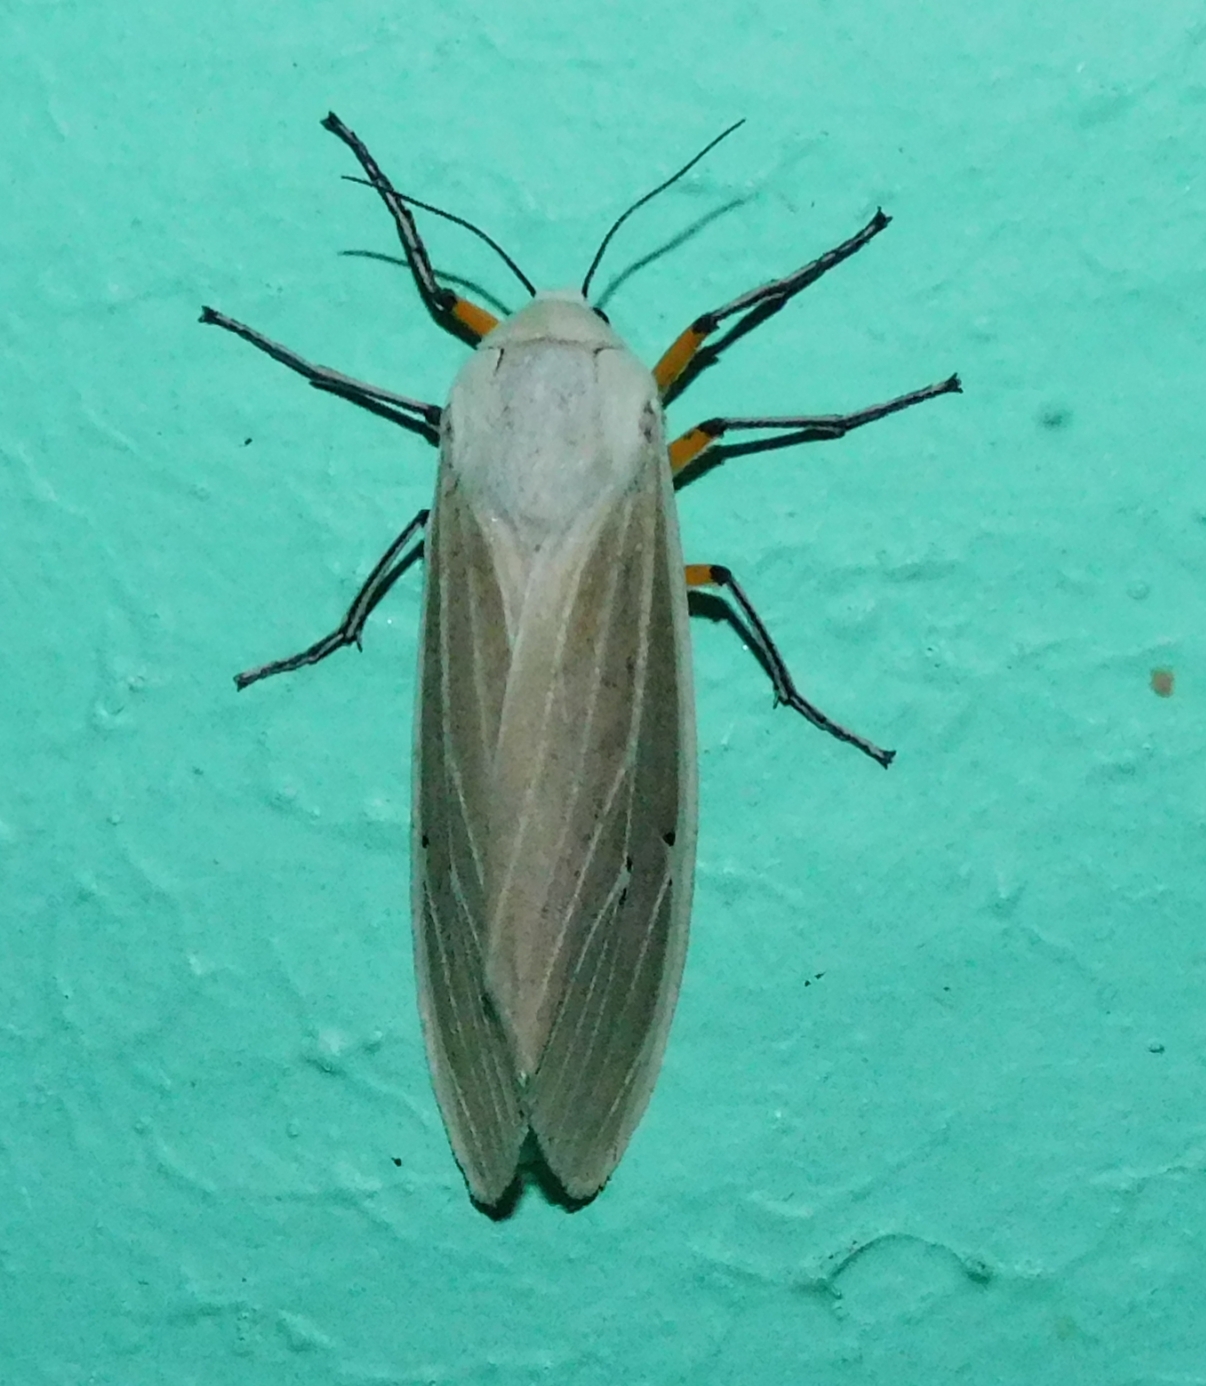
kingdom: Animalia
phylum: Arthropoda
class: Insecta
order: Lepidoptera
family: Erebidae
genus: Creatonotos
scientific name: Creatonotos transiens
